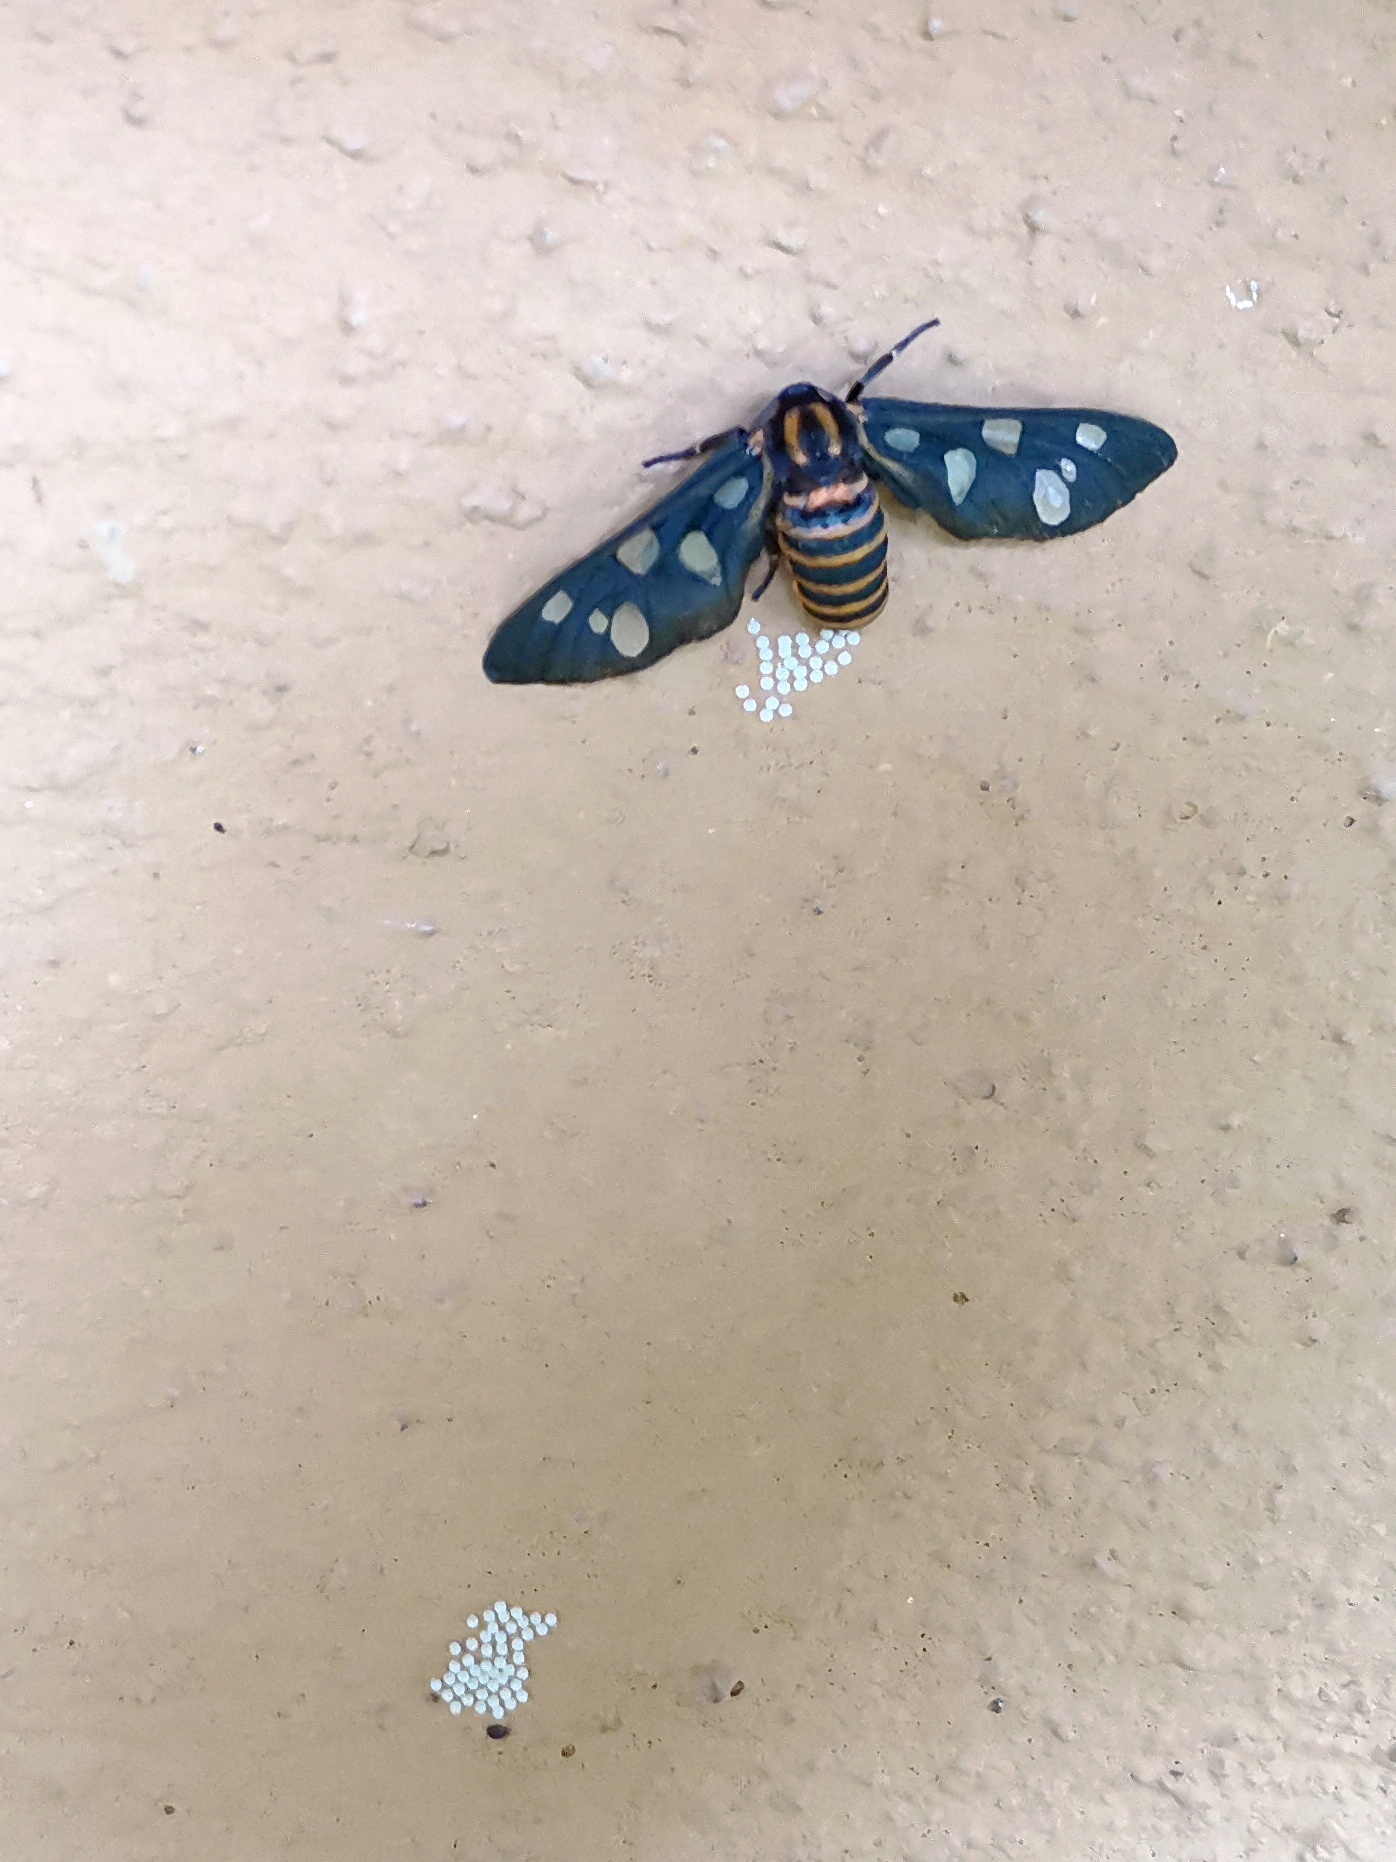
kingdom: Animalia
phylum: Arthropoda
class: Insecta
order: Lepidoptera
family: Erebidae
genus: Amata
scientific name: Amata passalis
